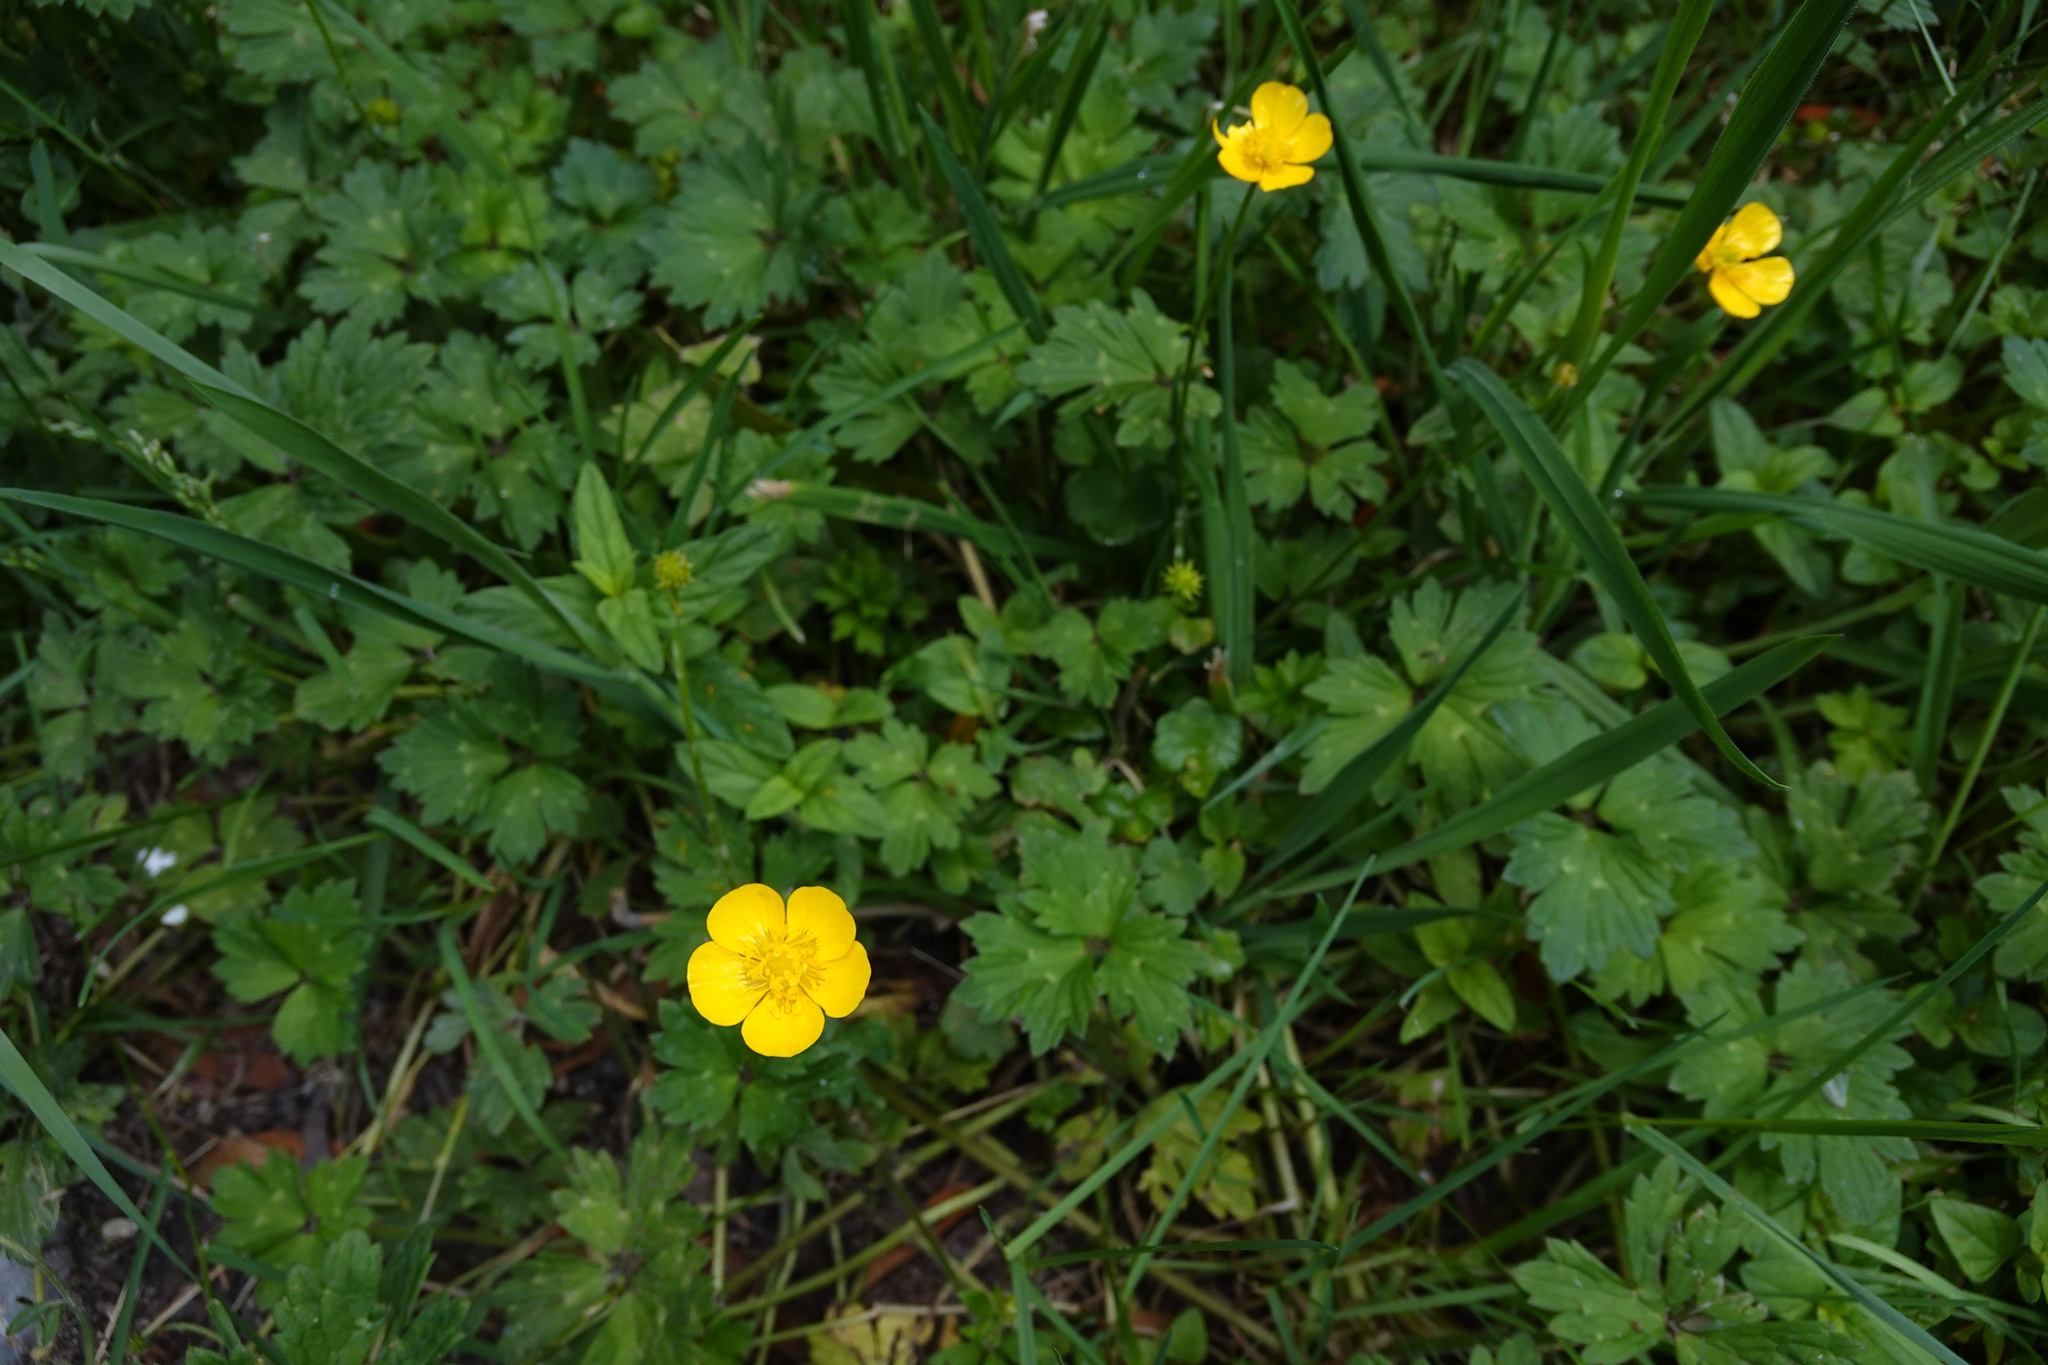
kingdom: Plantae
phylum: Tracheophyta
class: Magnoliopsida
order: Ranunculales
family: Ranunculaceae
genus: Ranunculus
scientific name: Ranunculus repens
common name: Creeping buttercup
